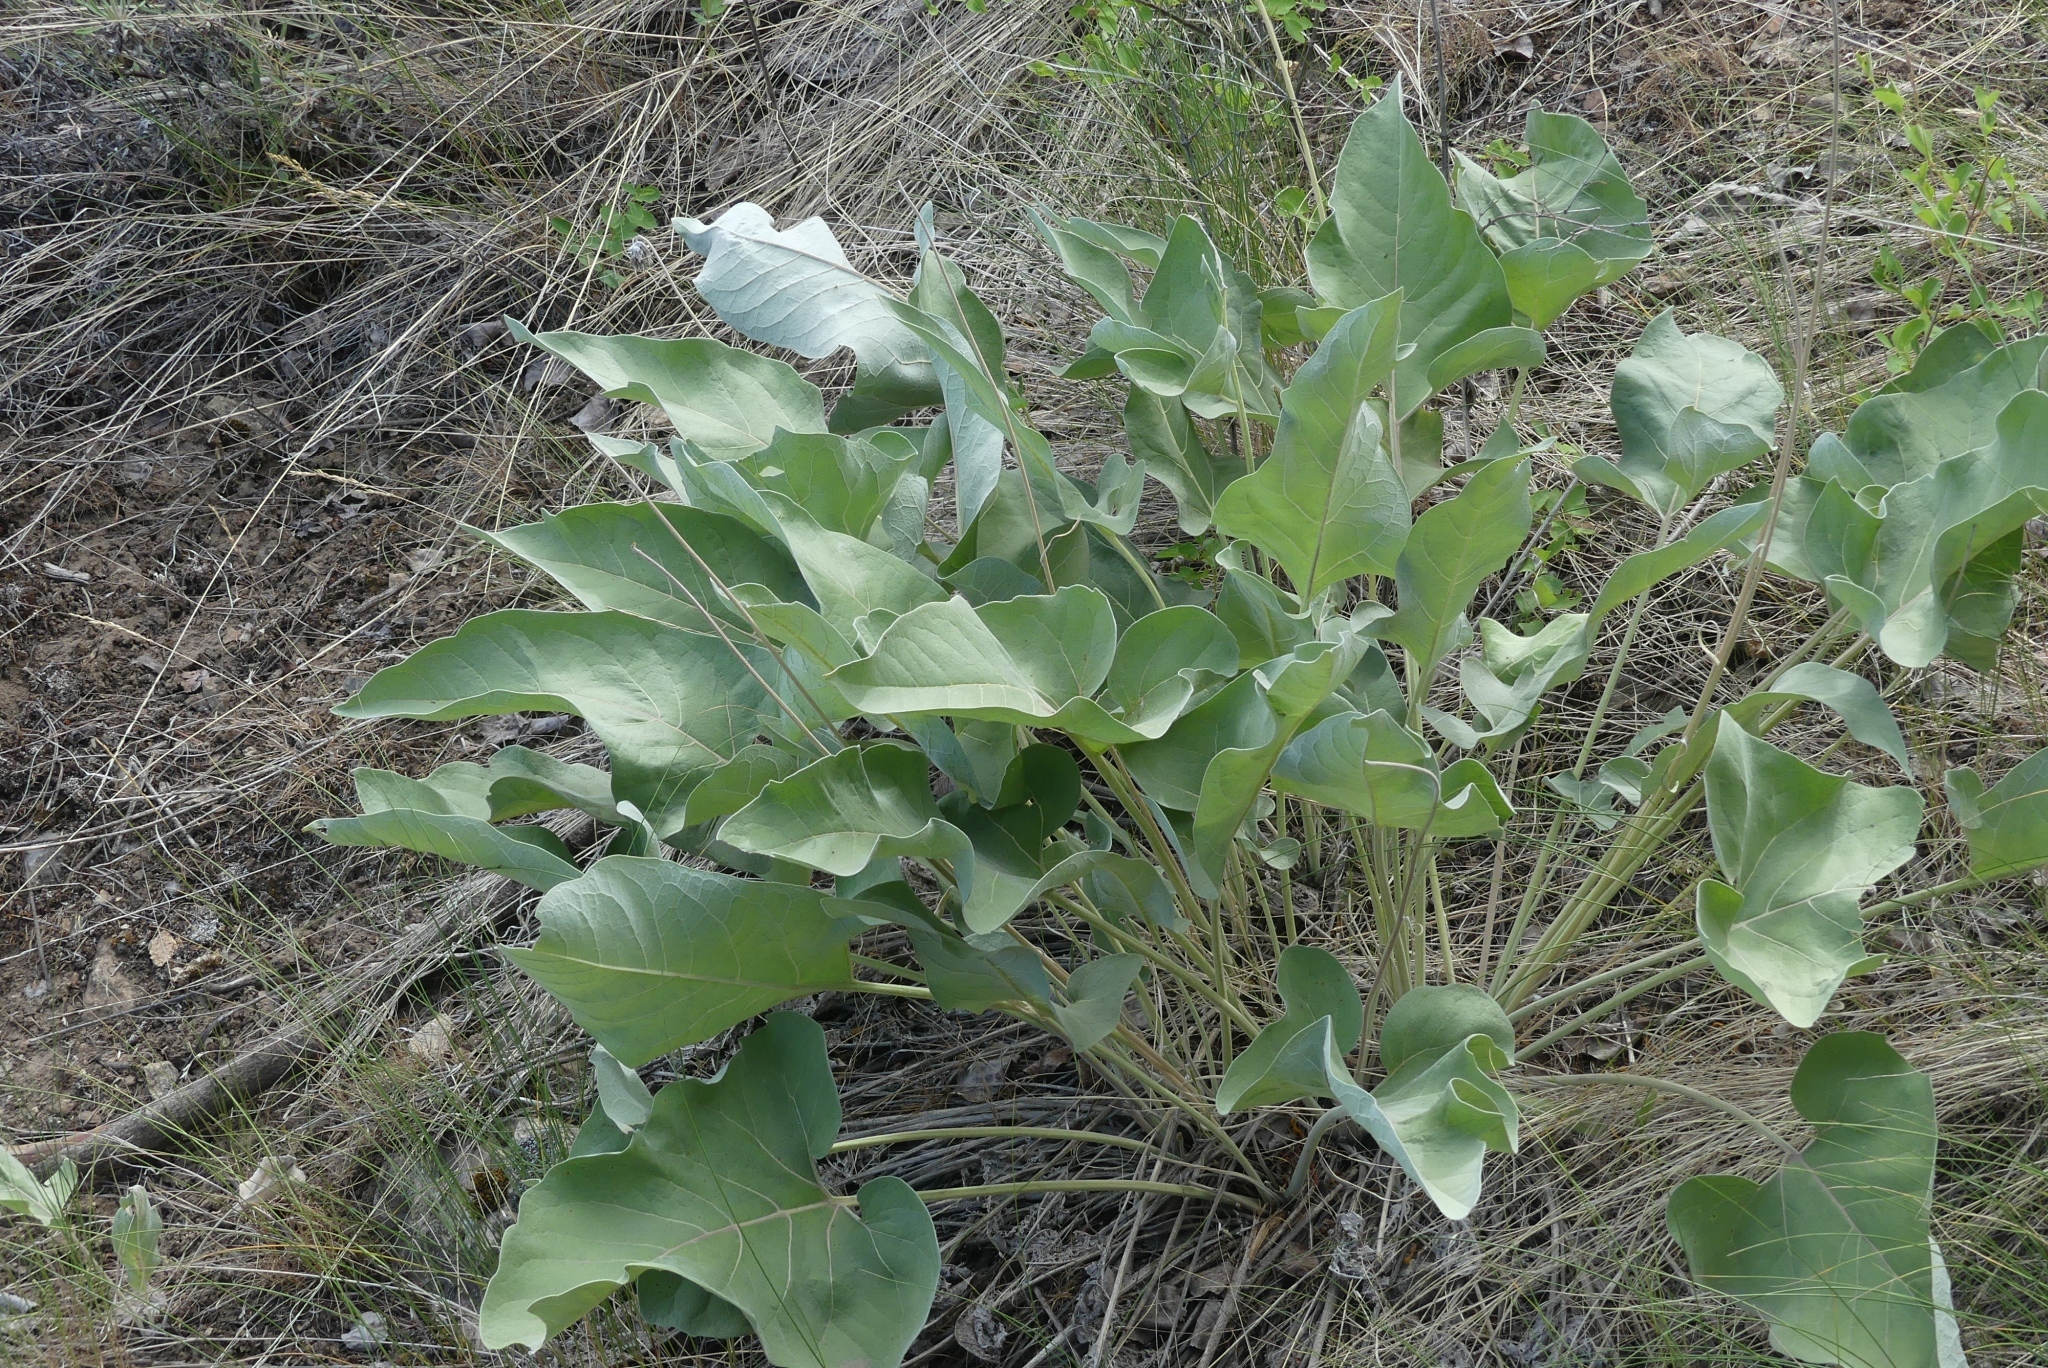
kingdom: Plantae
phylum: Tracheophyta
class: Magnoliopsida
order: Asterales
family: Asteraceae
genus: Wyethia
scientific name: Wyethia sagittata
